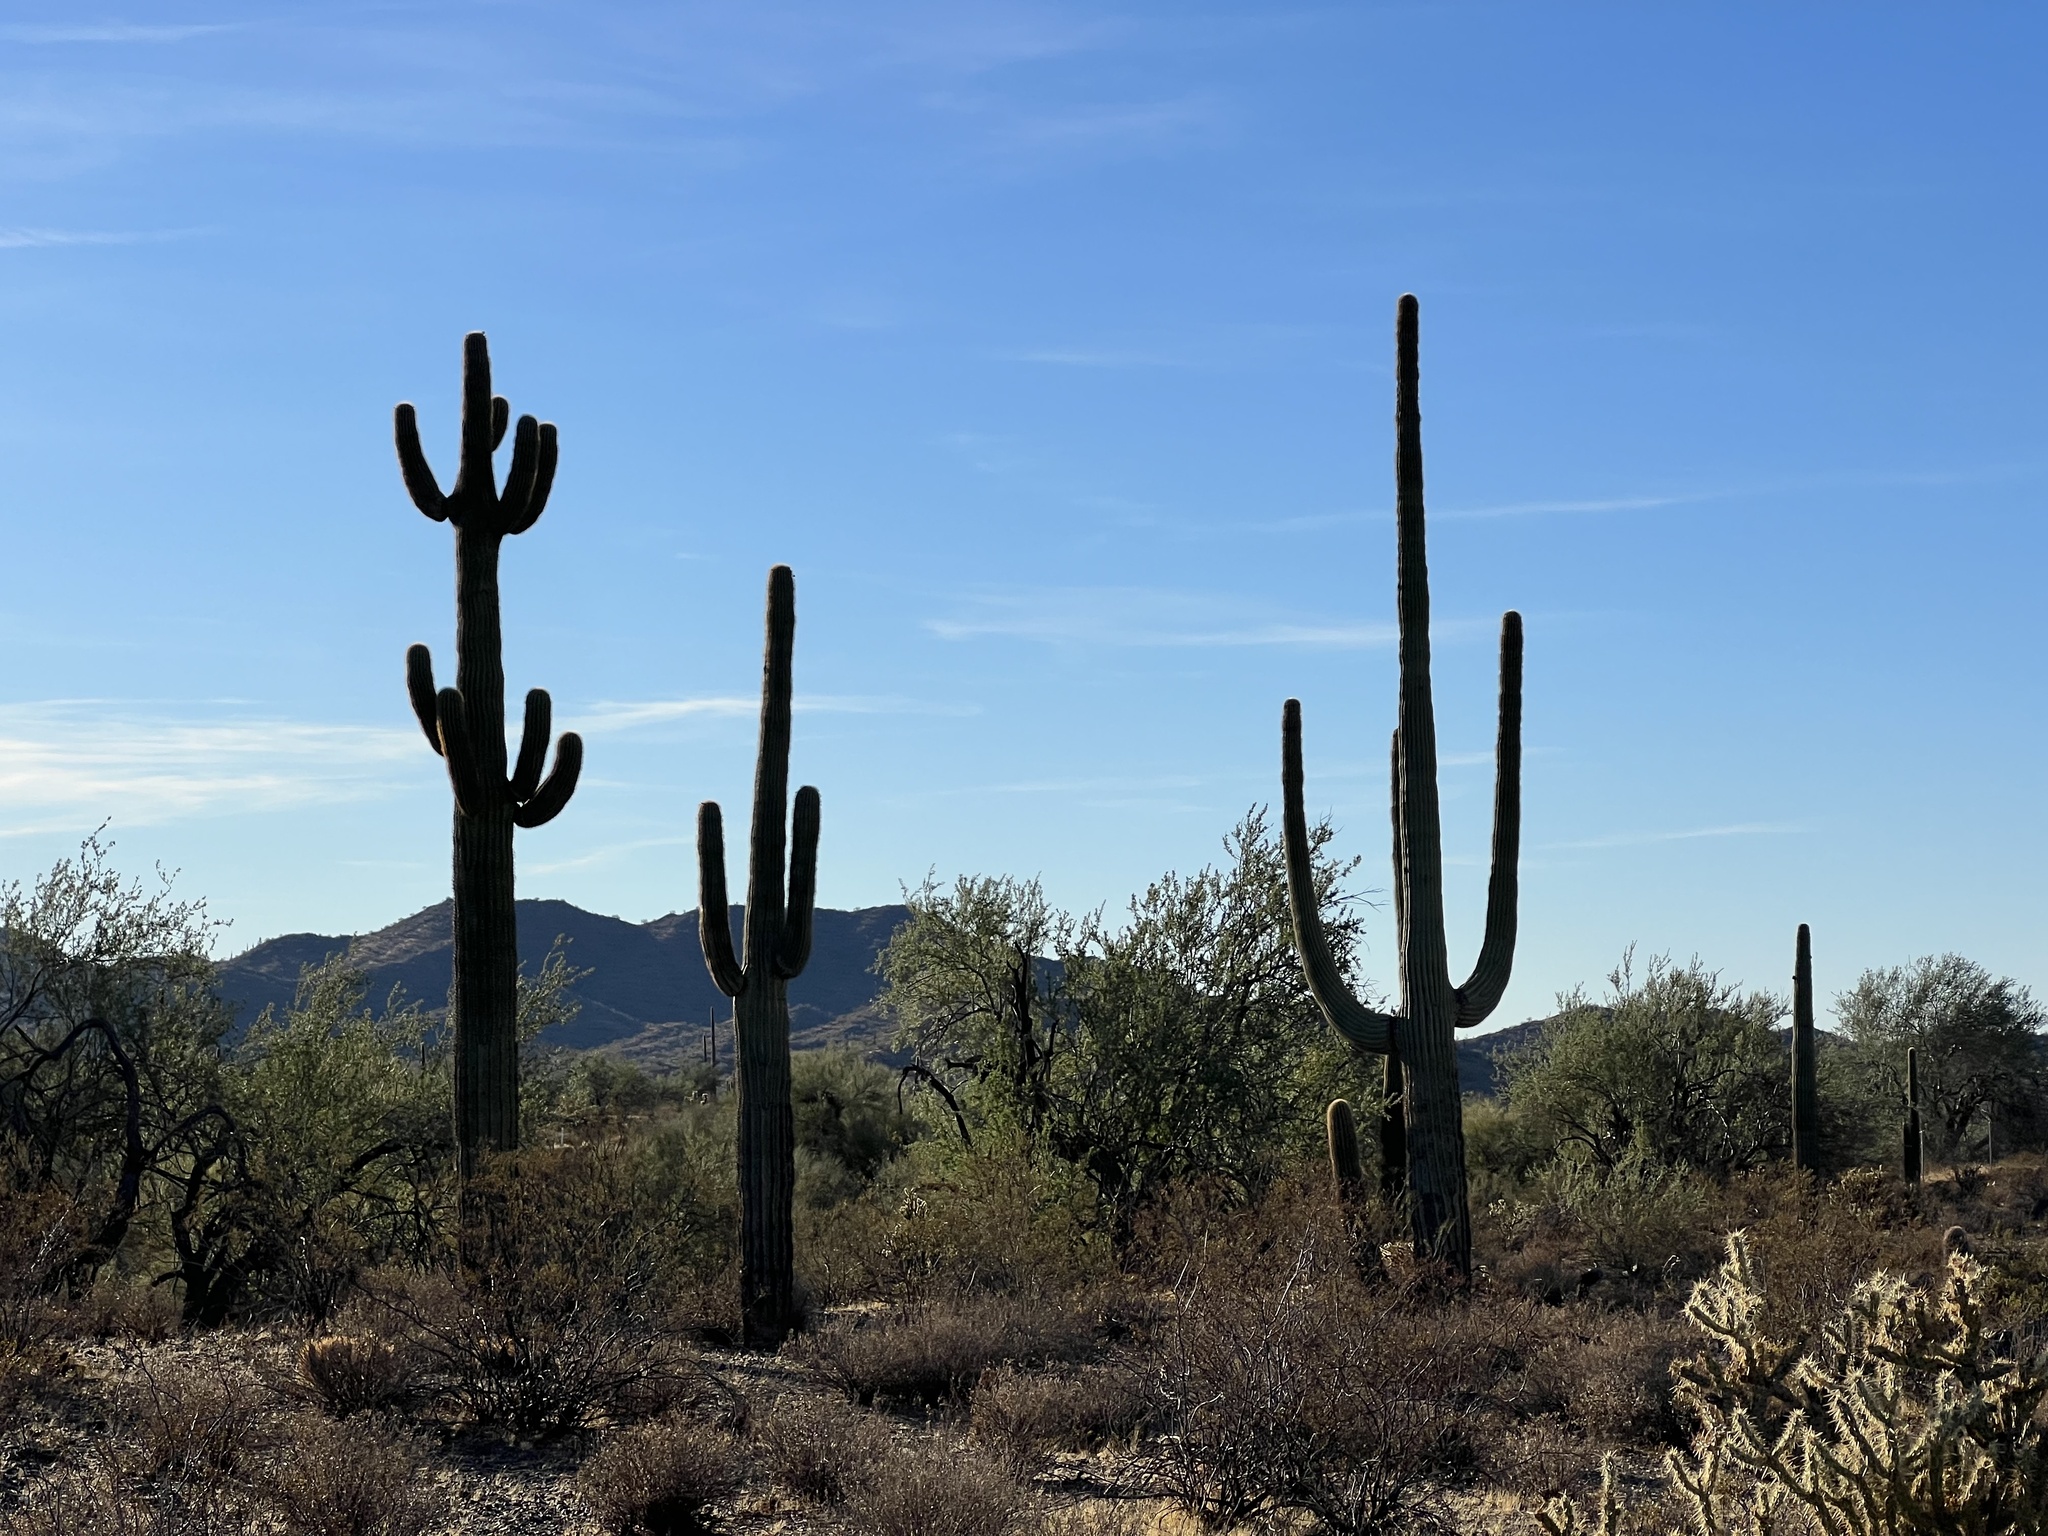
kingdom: Plantae
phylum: Tracheophyta
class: Magnoliopsida
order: Caryophyllales
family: Cactaceae
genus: Carnegiea
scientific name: Carnegiea gigantea
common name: Saguaro
